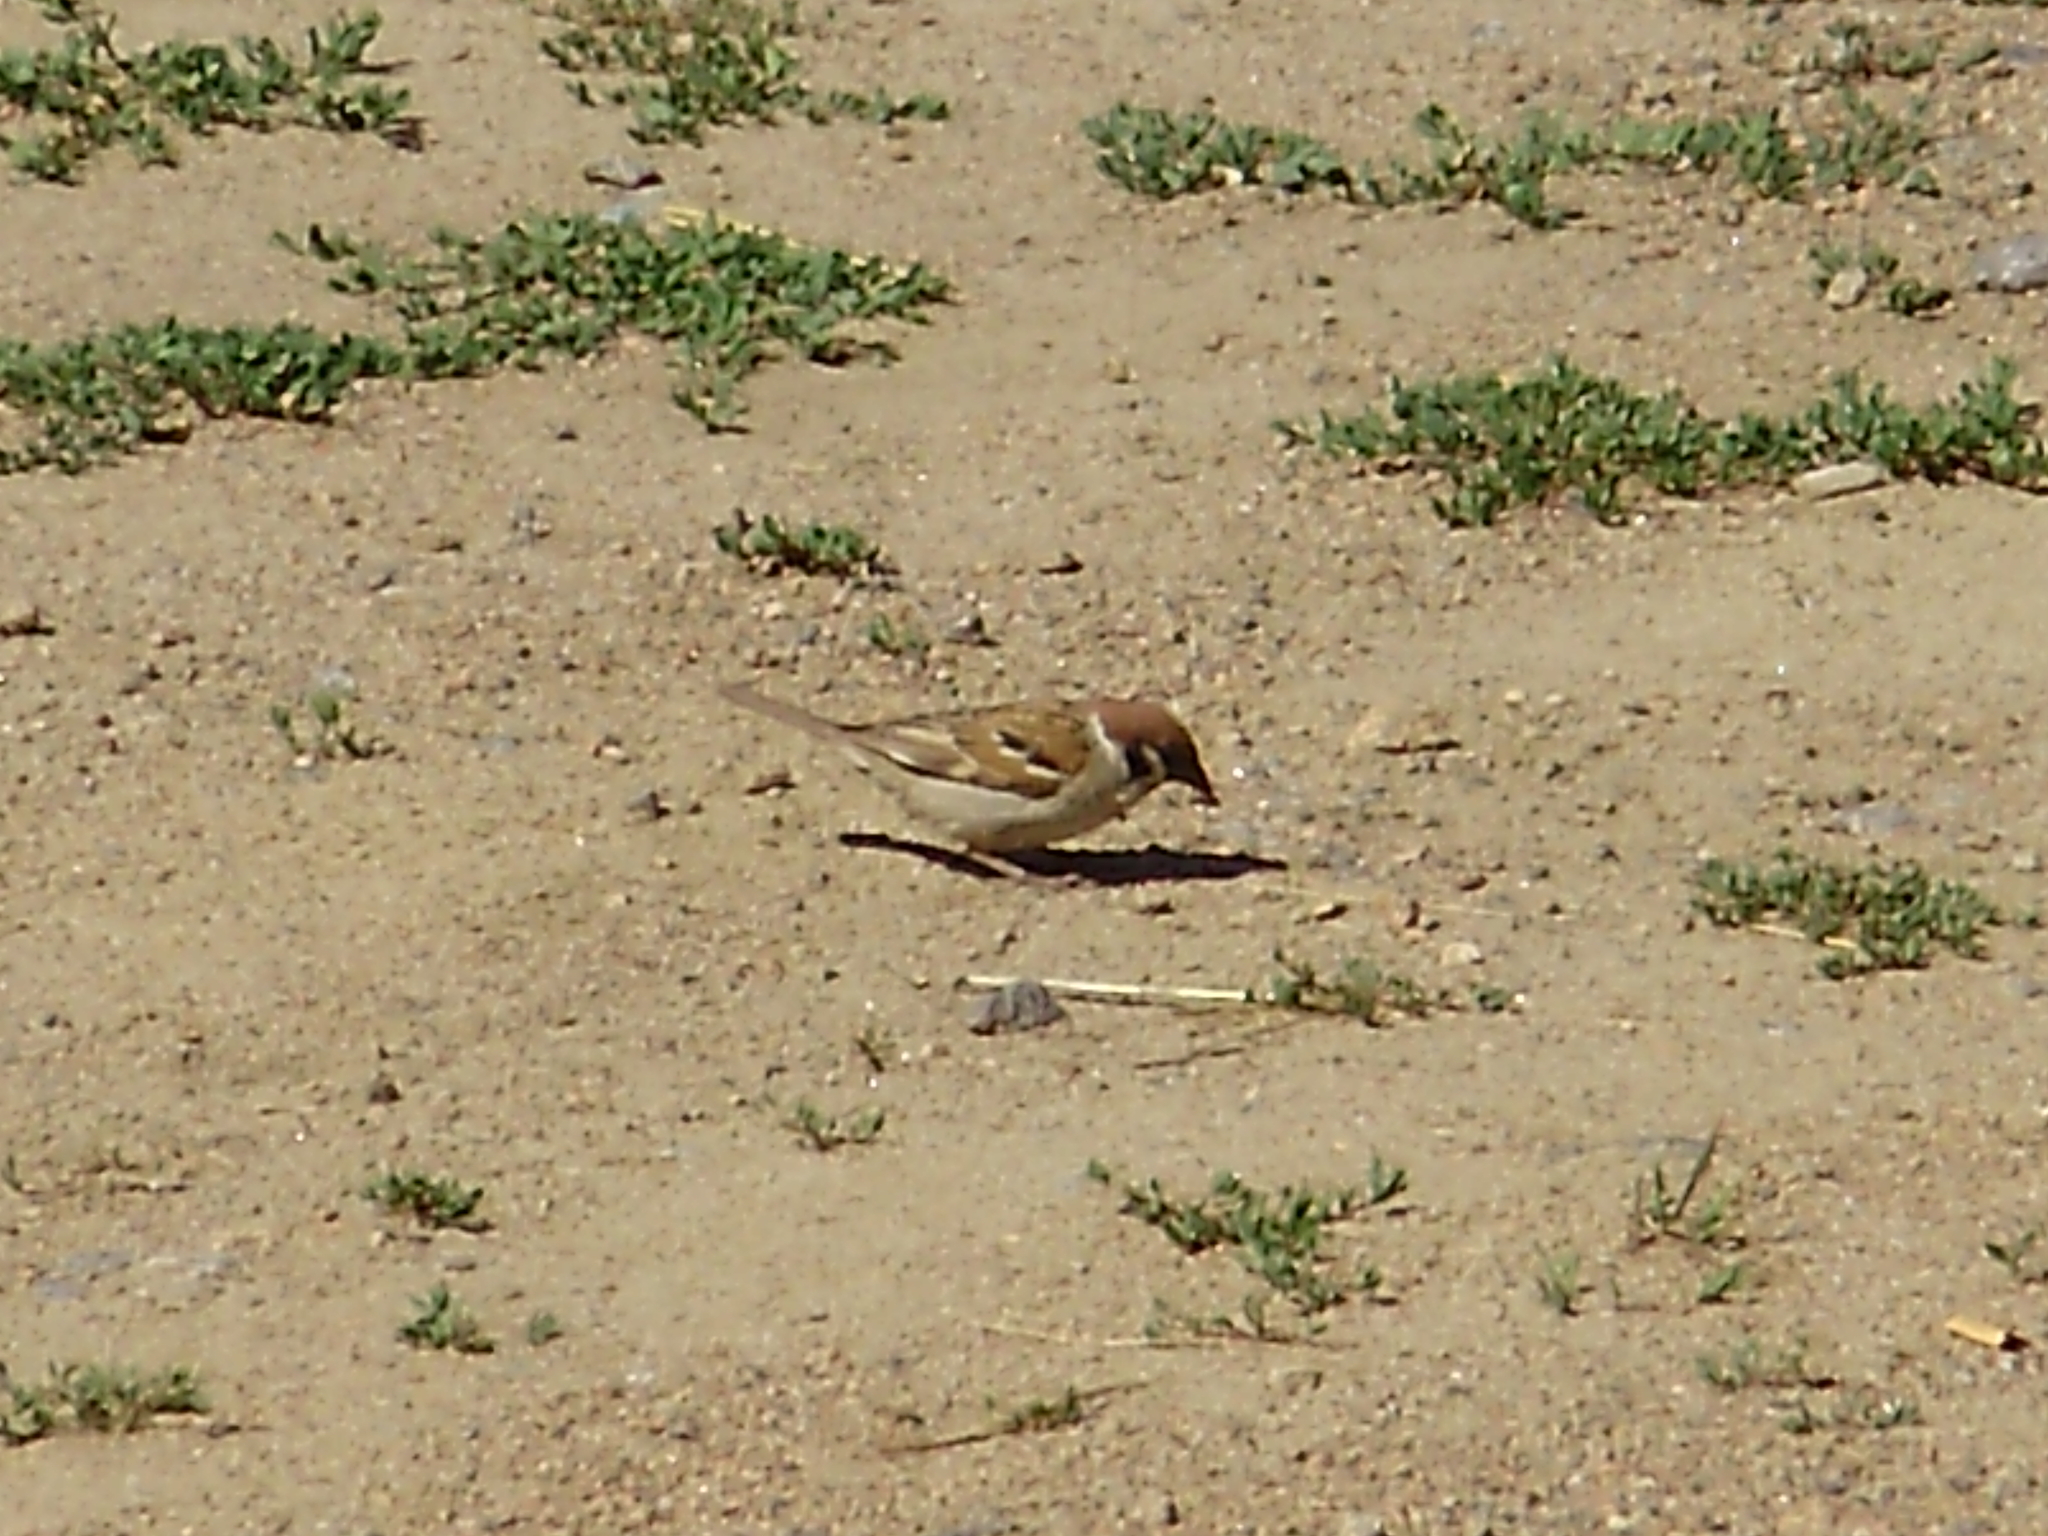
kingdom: Animalia
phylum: Chordata
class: Aves
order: Passeriformes
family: Passeridae
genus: Passer
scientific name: Passer montanus
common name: Eurasian tree sparrow
